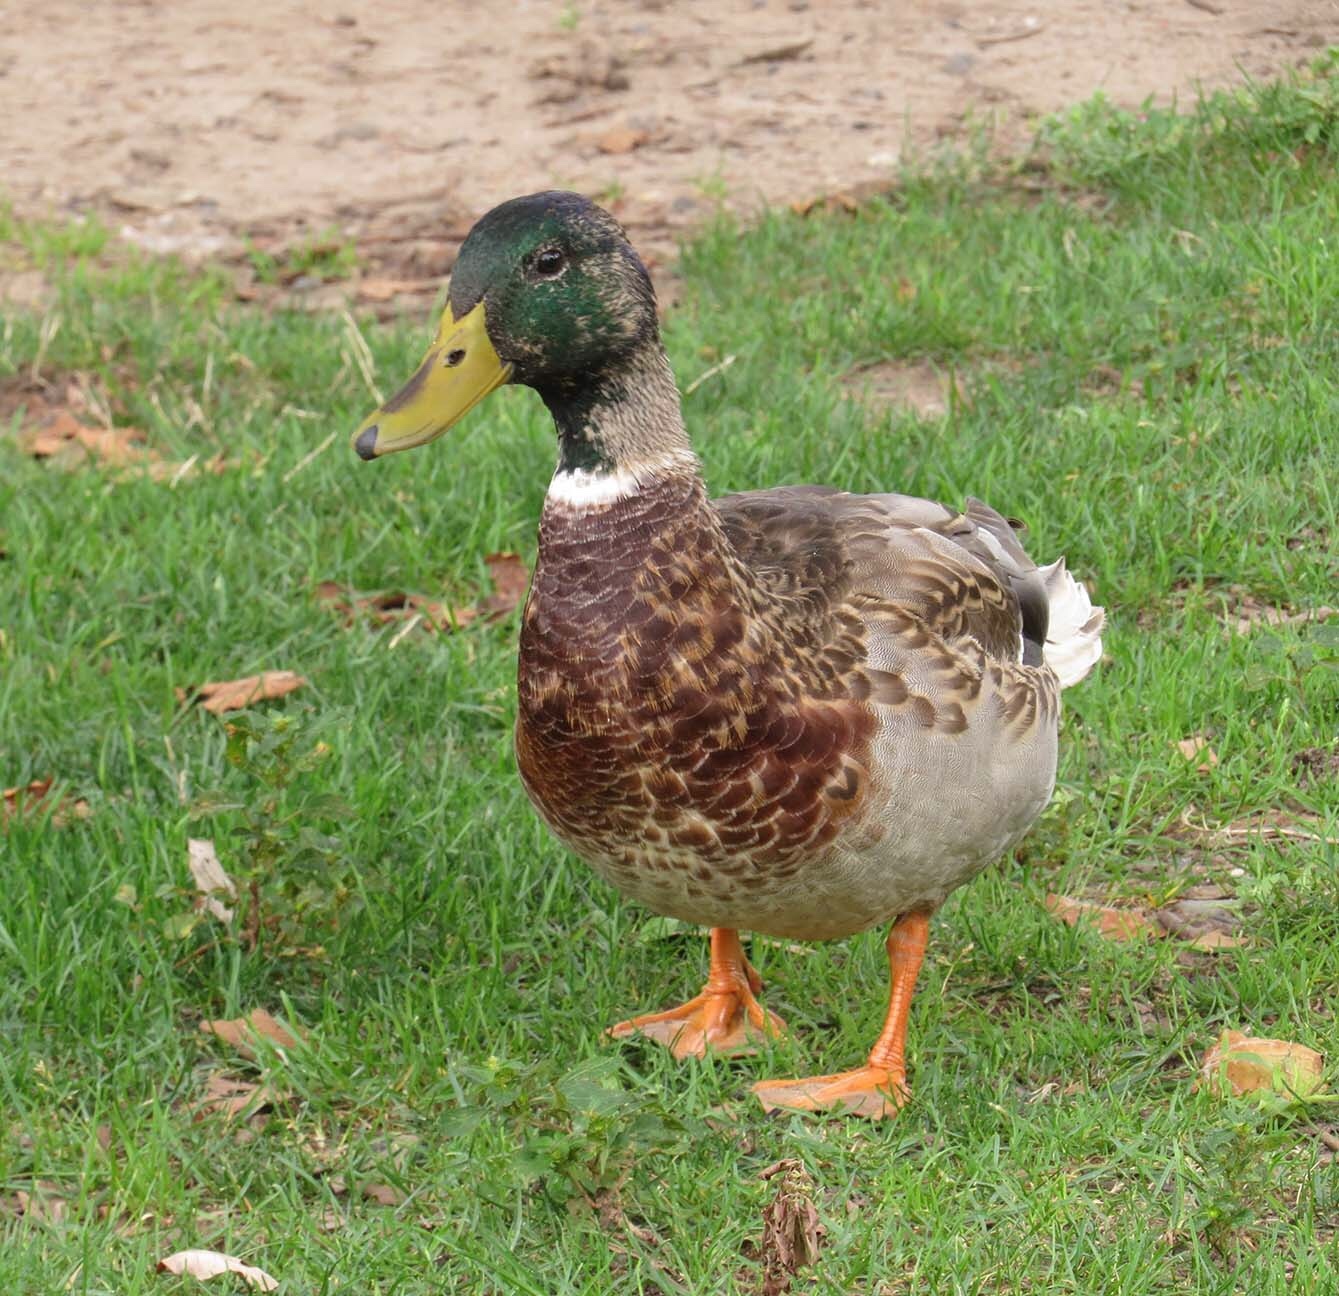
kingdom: Animalia
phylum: Chordata
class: Aves
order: Anseriformes
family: Anatidae
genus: Anas
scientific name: Anas platyrhynchos
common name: Mallard
